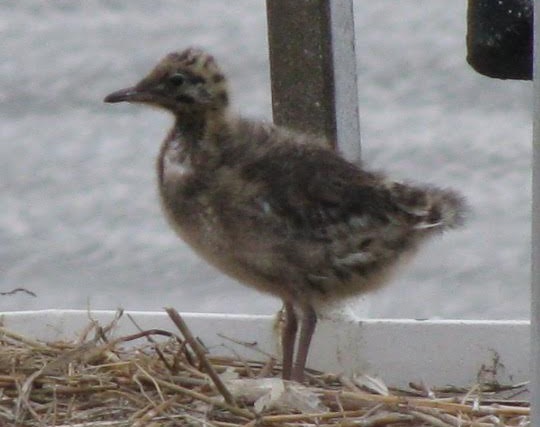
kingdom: Animalia
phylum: Chordata
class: Aves
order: Charadriiformes
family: Laridae
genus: Chroicocephalus
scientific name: Chroicocephalus ridibundus
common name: Black-headed gull
